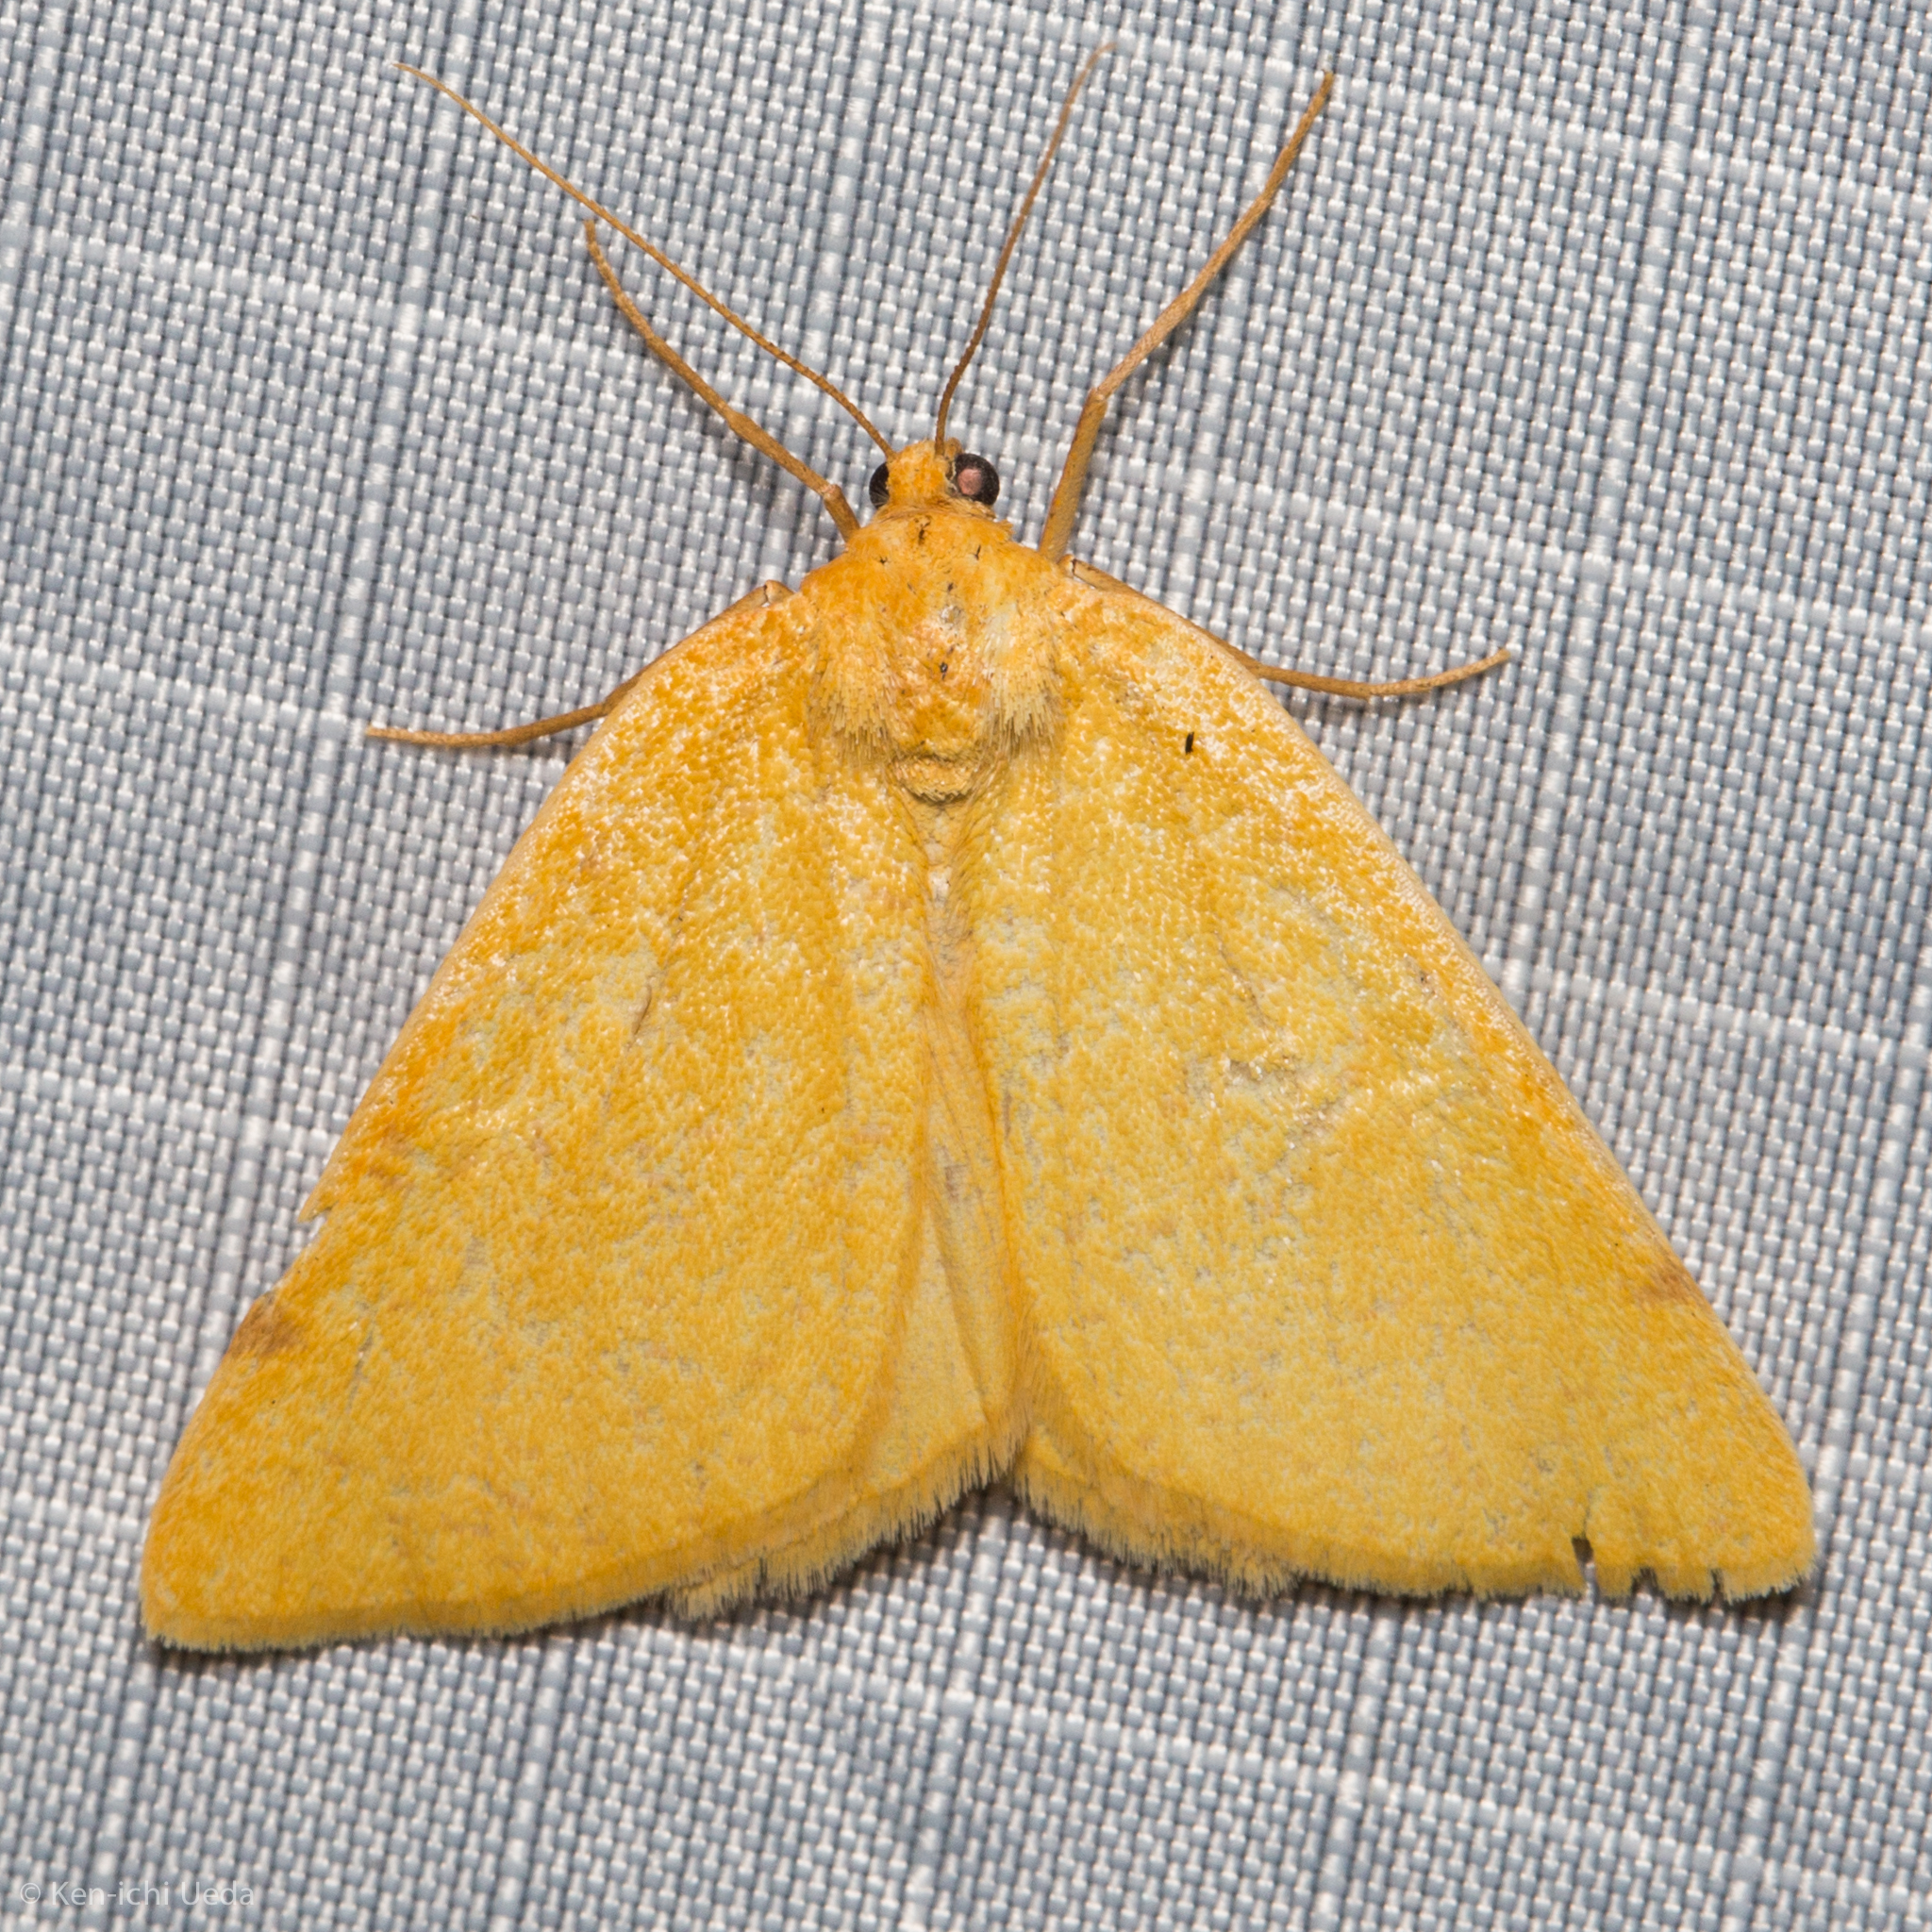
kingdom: Animalia
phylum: Arthropoda
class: Insecta
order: Lepidoptera
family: Geometridae
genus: Hesperumia
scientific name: Hesperumia sulphuraria
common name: Sulphur moth
